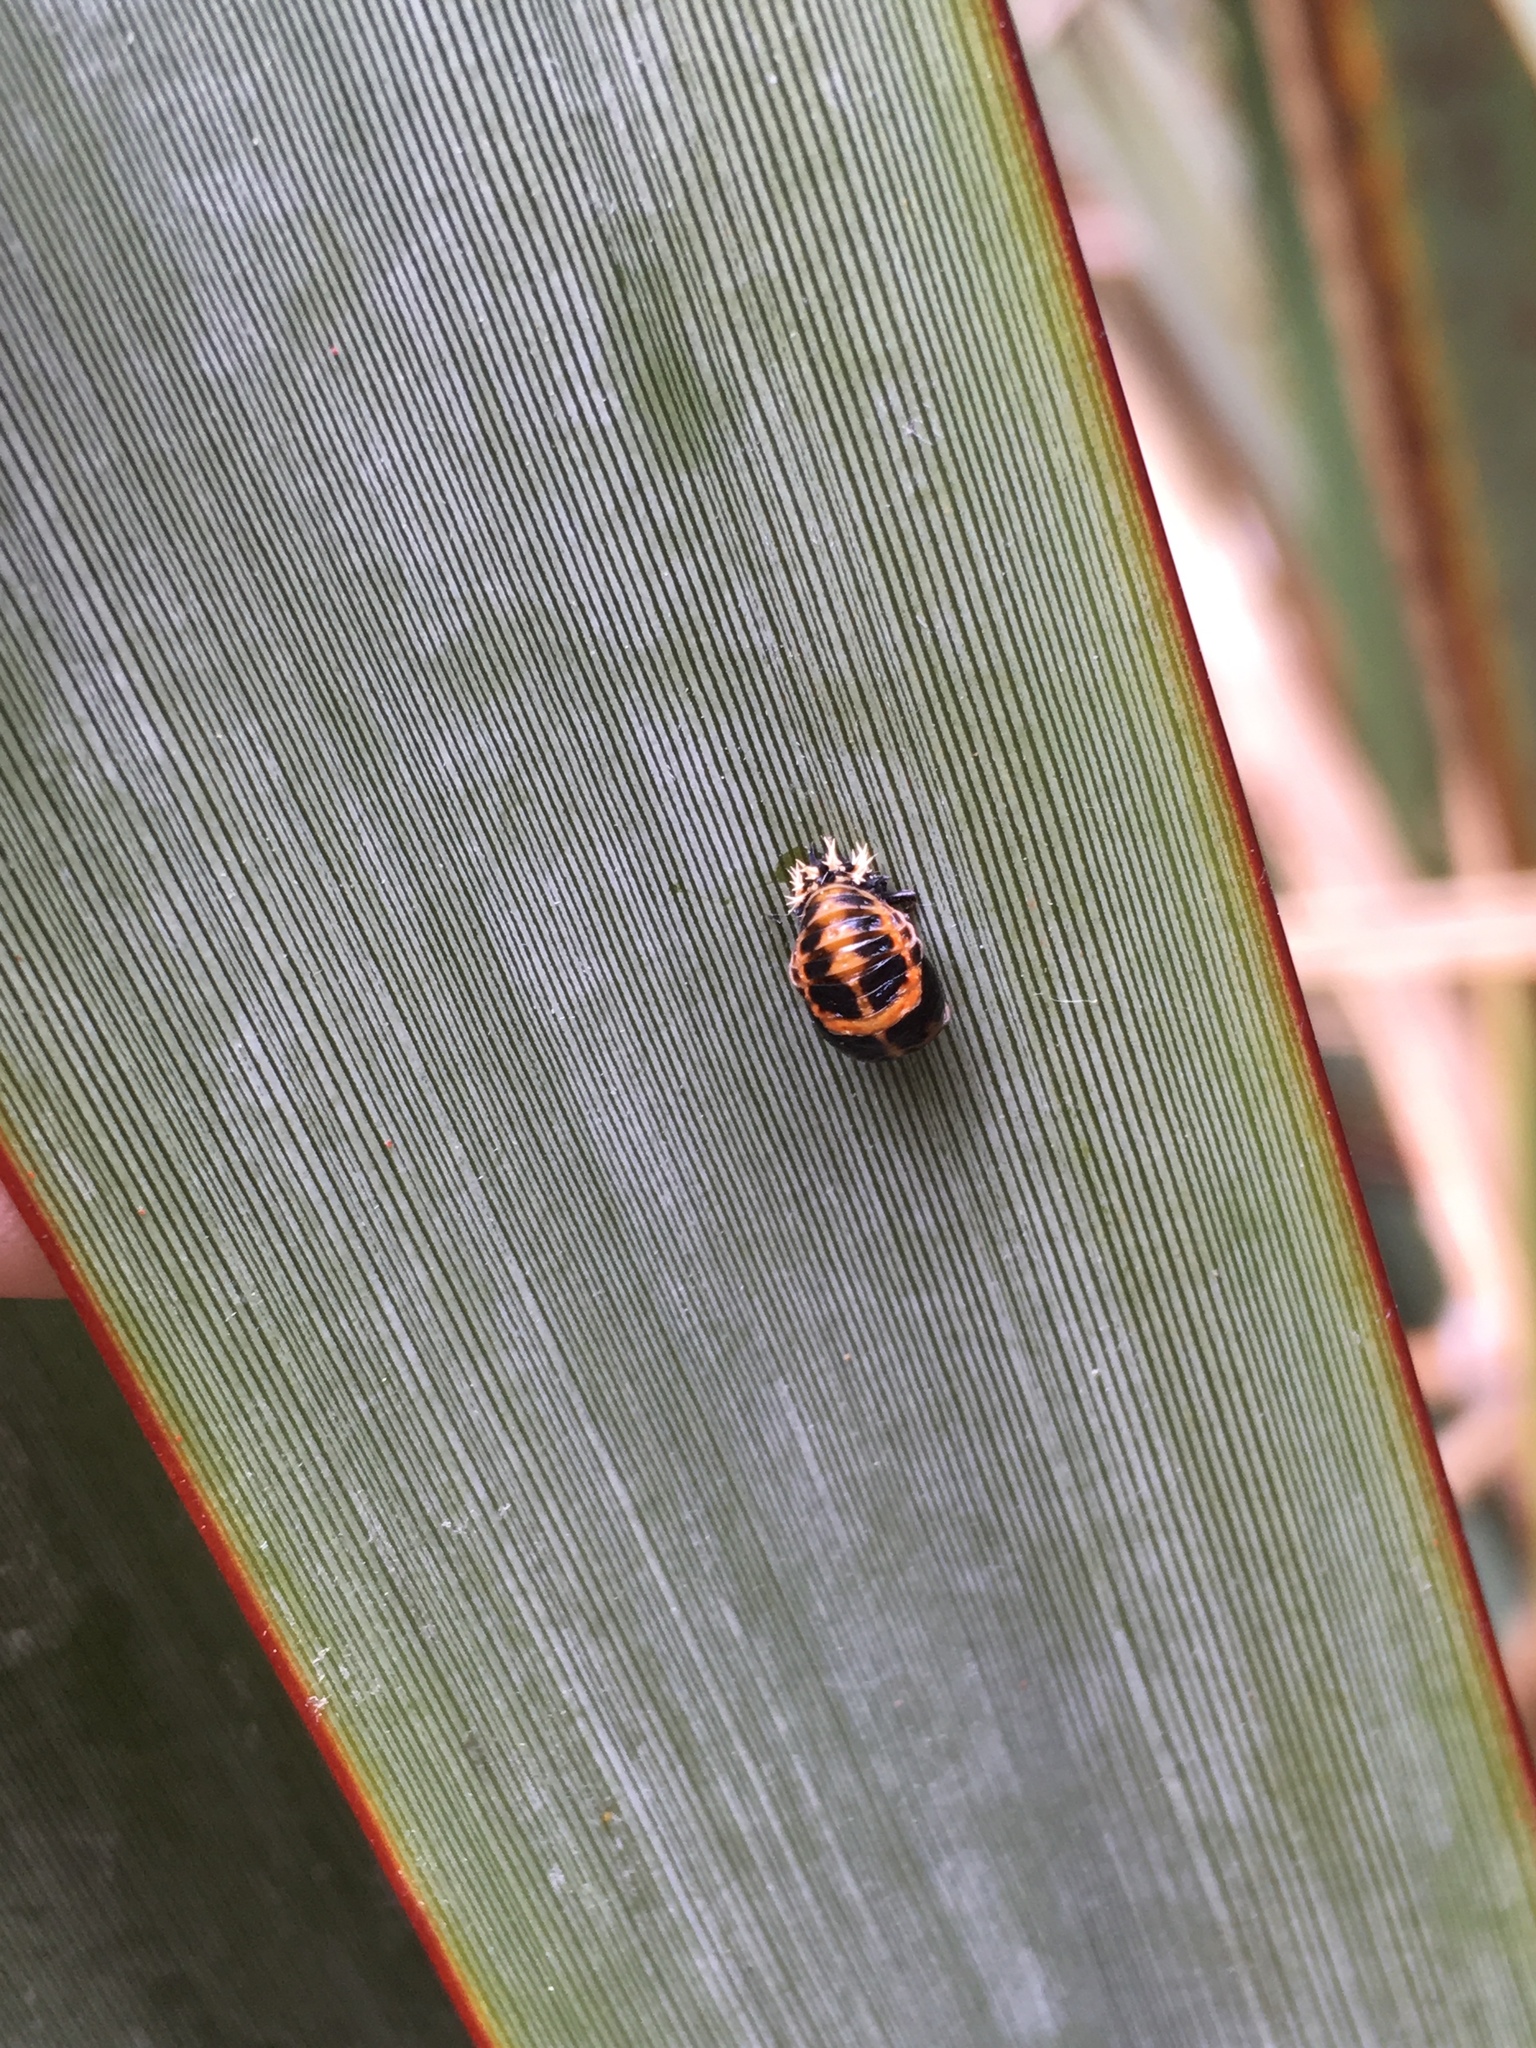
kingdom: Animalia
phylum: Arthropoda
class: Insecta
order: Coleoptera
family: Coccinellidae
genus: Harmonia
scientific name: Harmonia axyridis
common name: Harlequin ladybird
